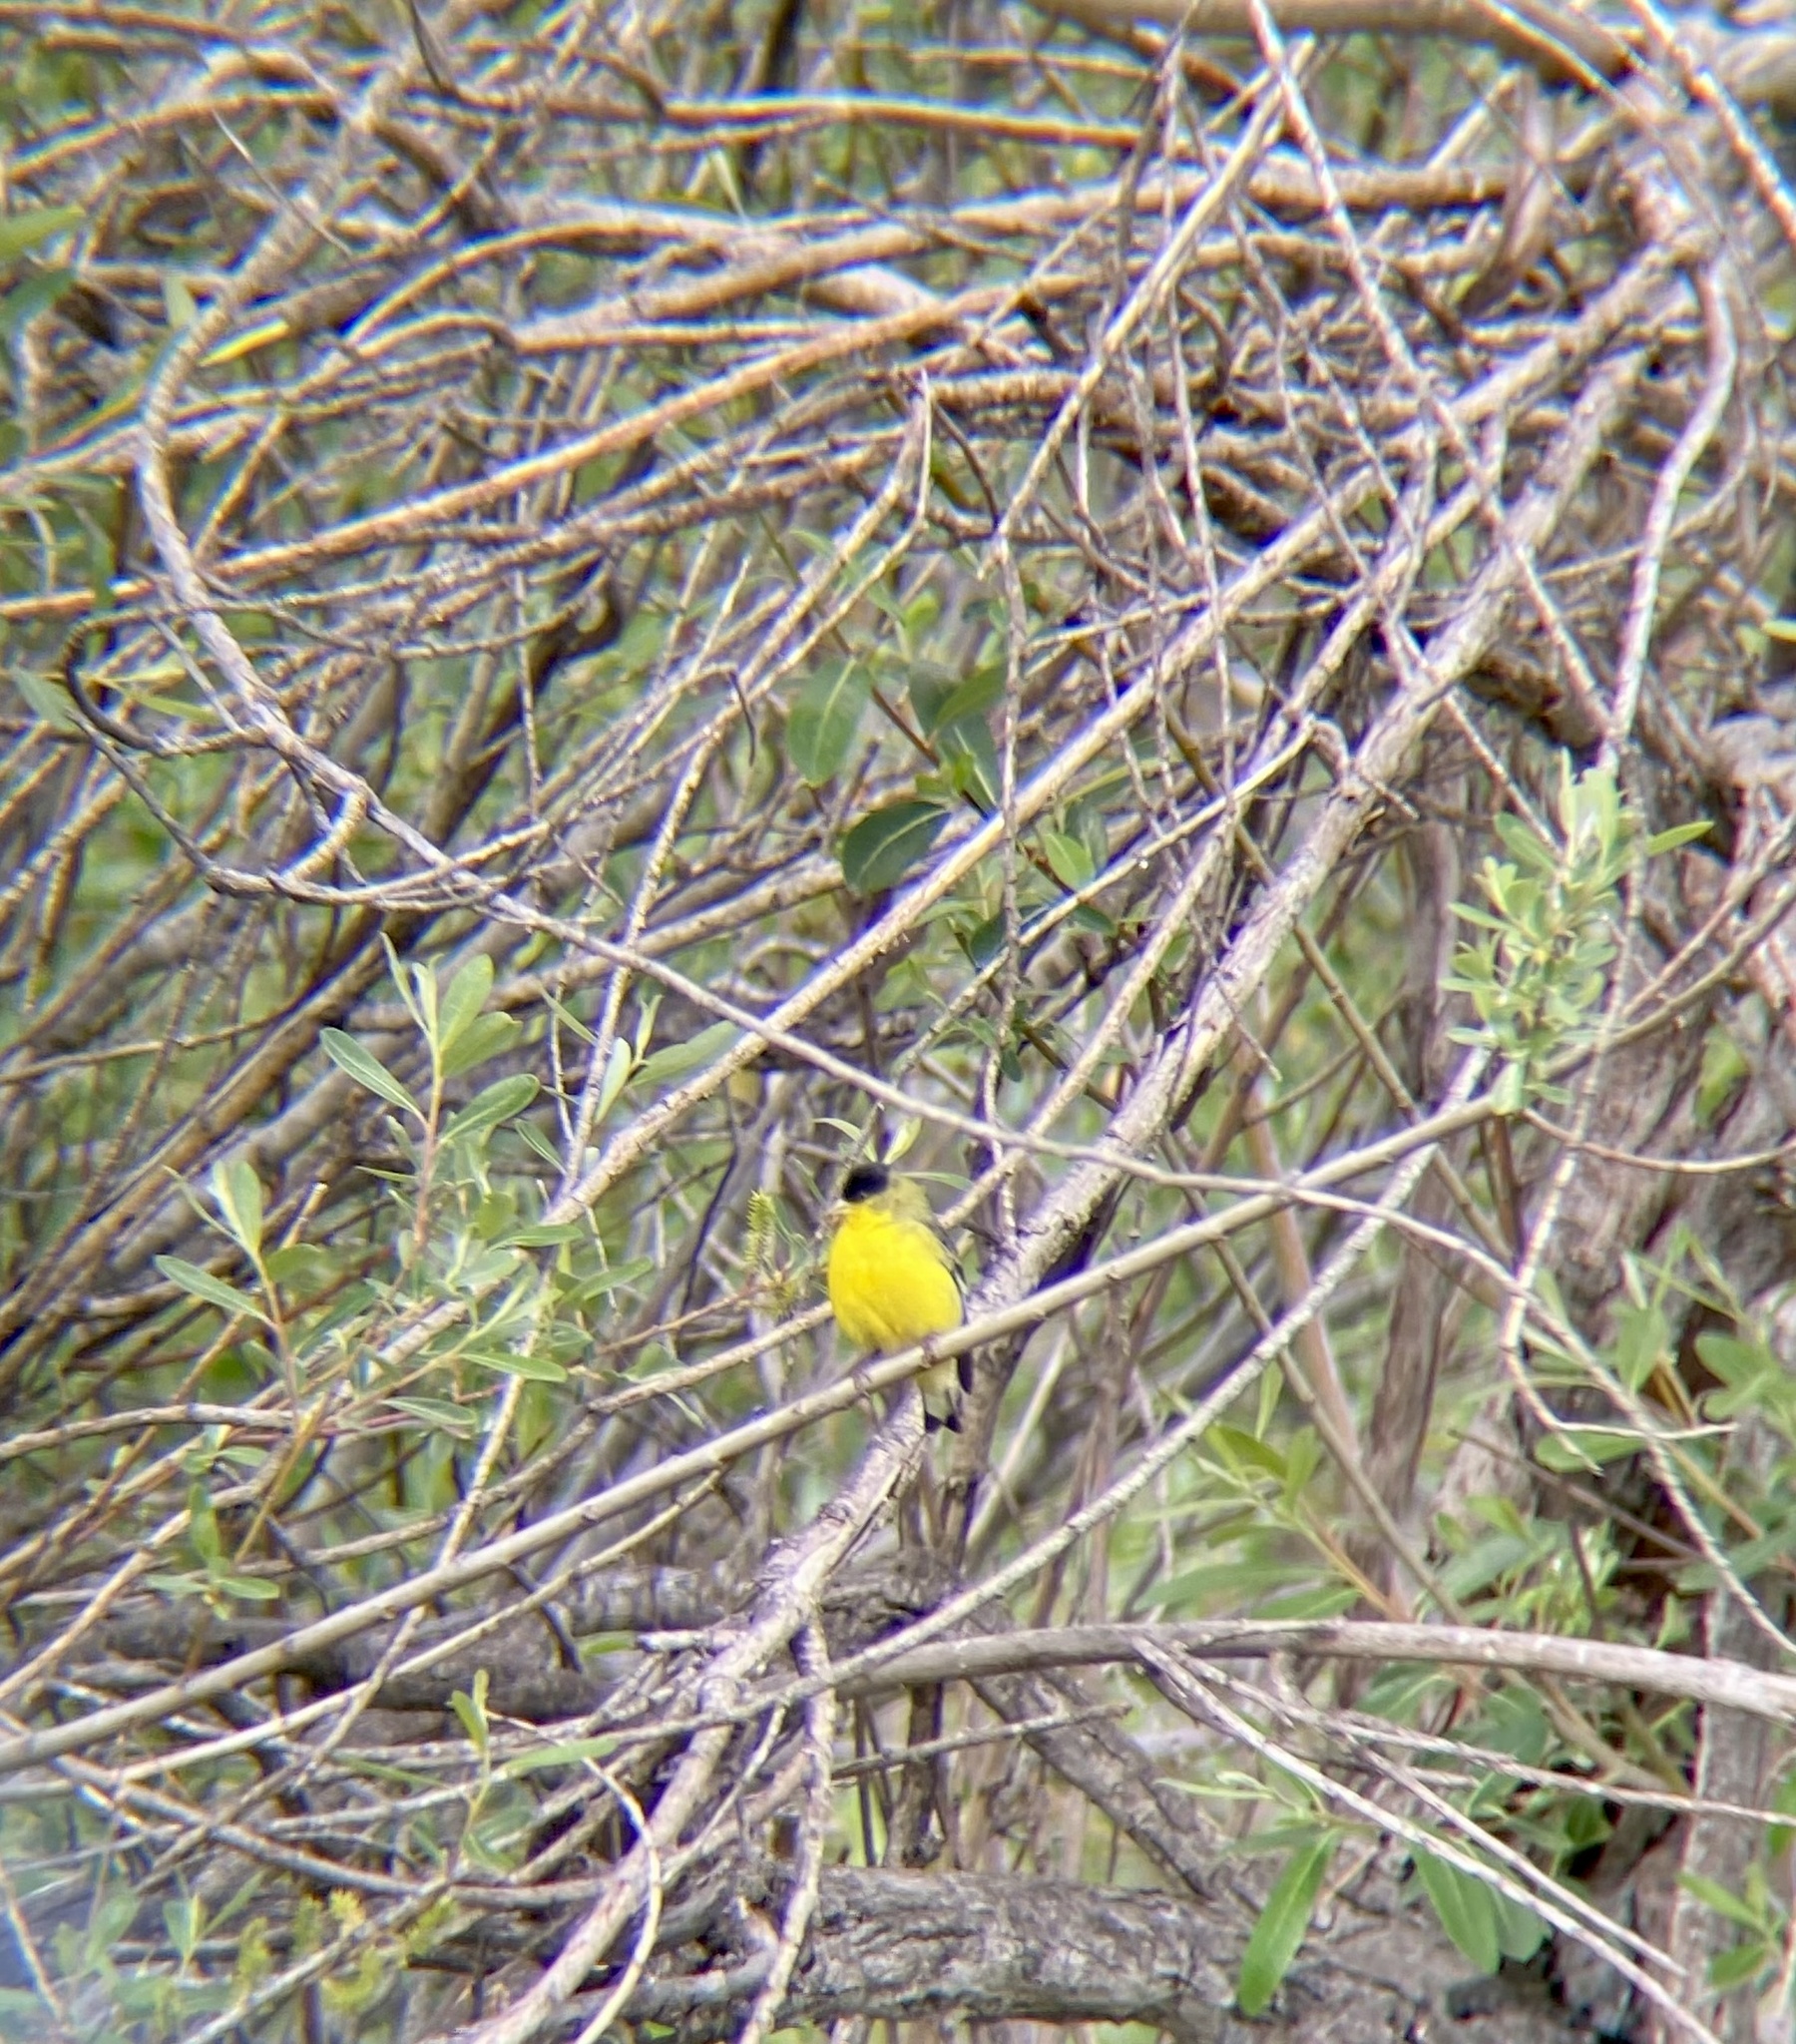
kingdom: Animalia
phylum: Chordata
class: Aves
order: Passeriformes
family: Fringillidae
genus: Spinus
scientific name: Spinus psaltria
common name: Lesser goldfinch
